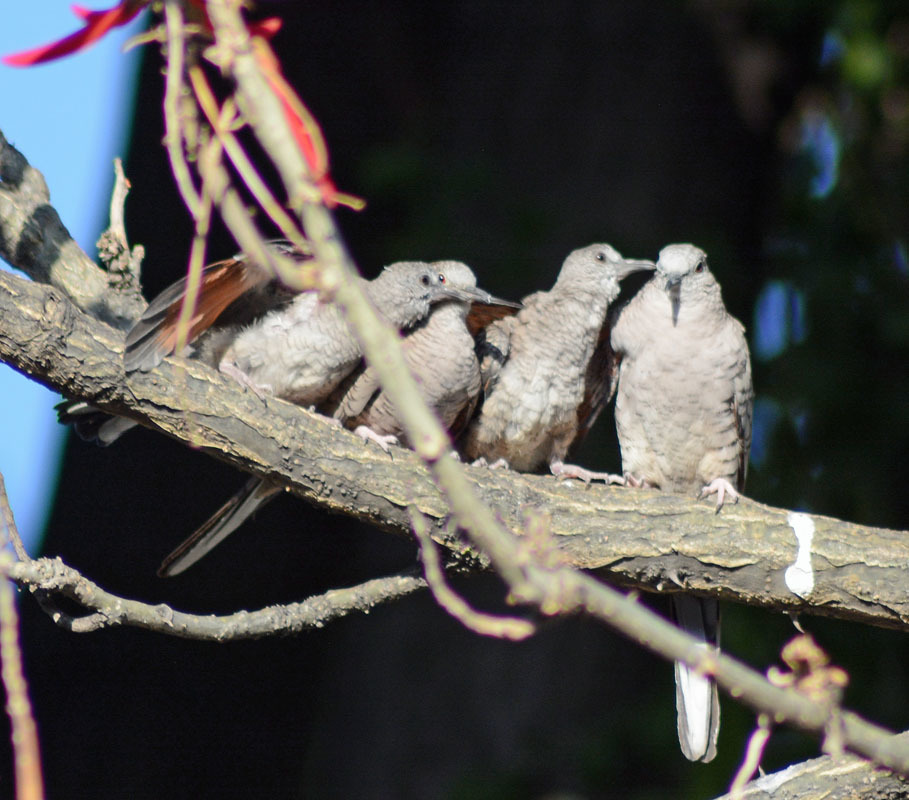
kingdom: Animalia
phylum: Chordata
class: Aves
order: Columbiformes
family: Columbidae
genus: Columbina
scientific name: Columbina inca
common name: Inca dove
